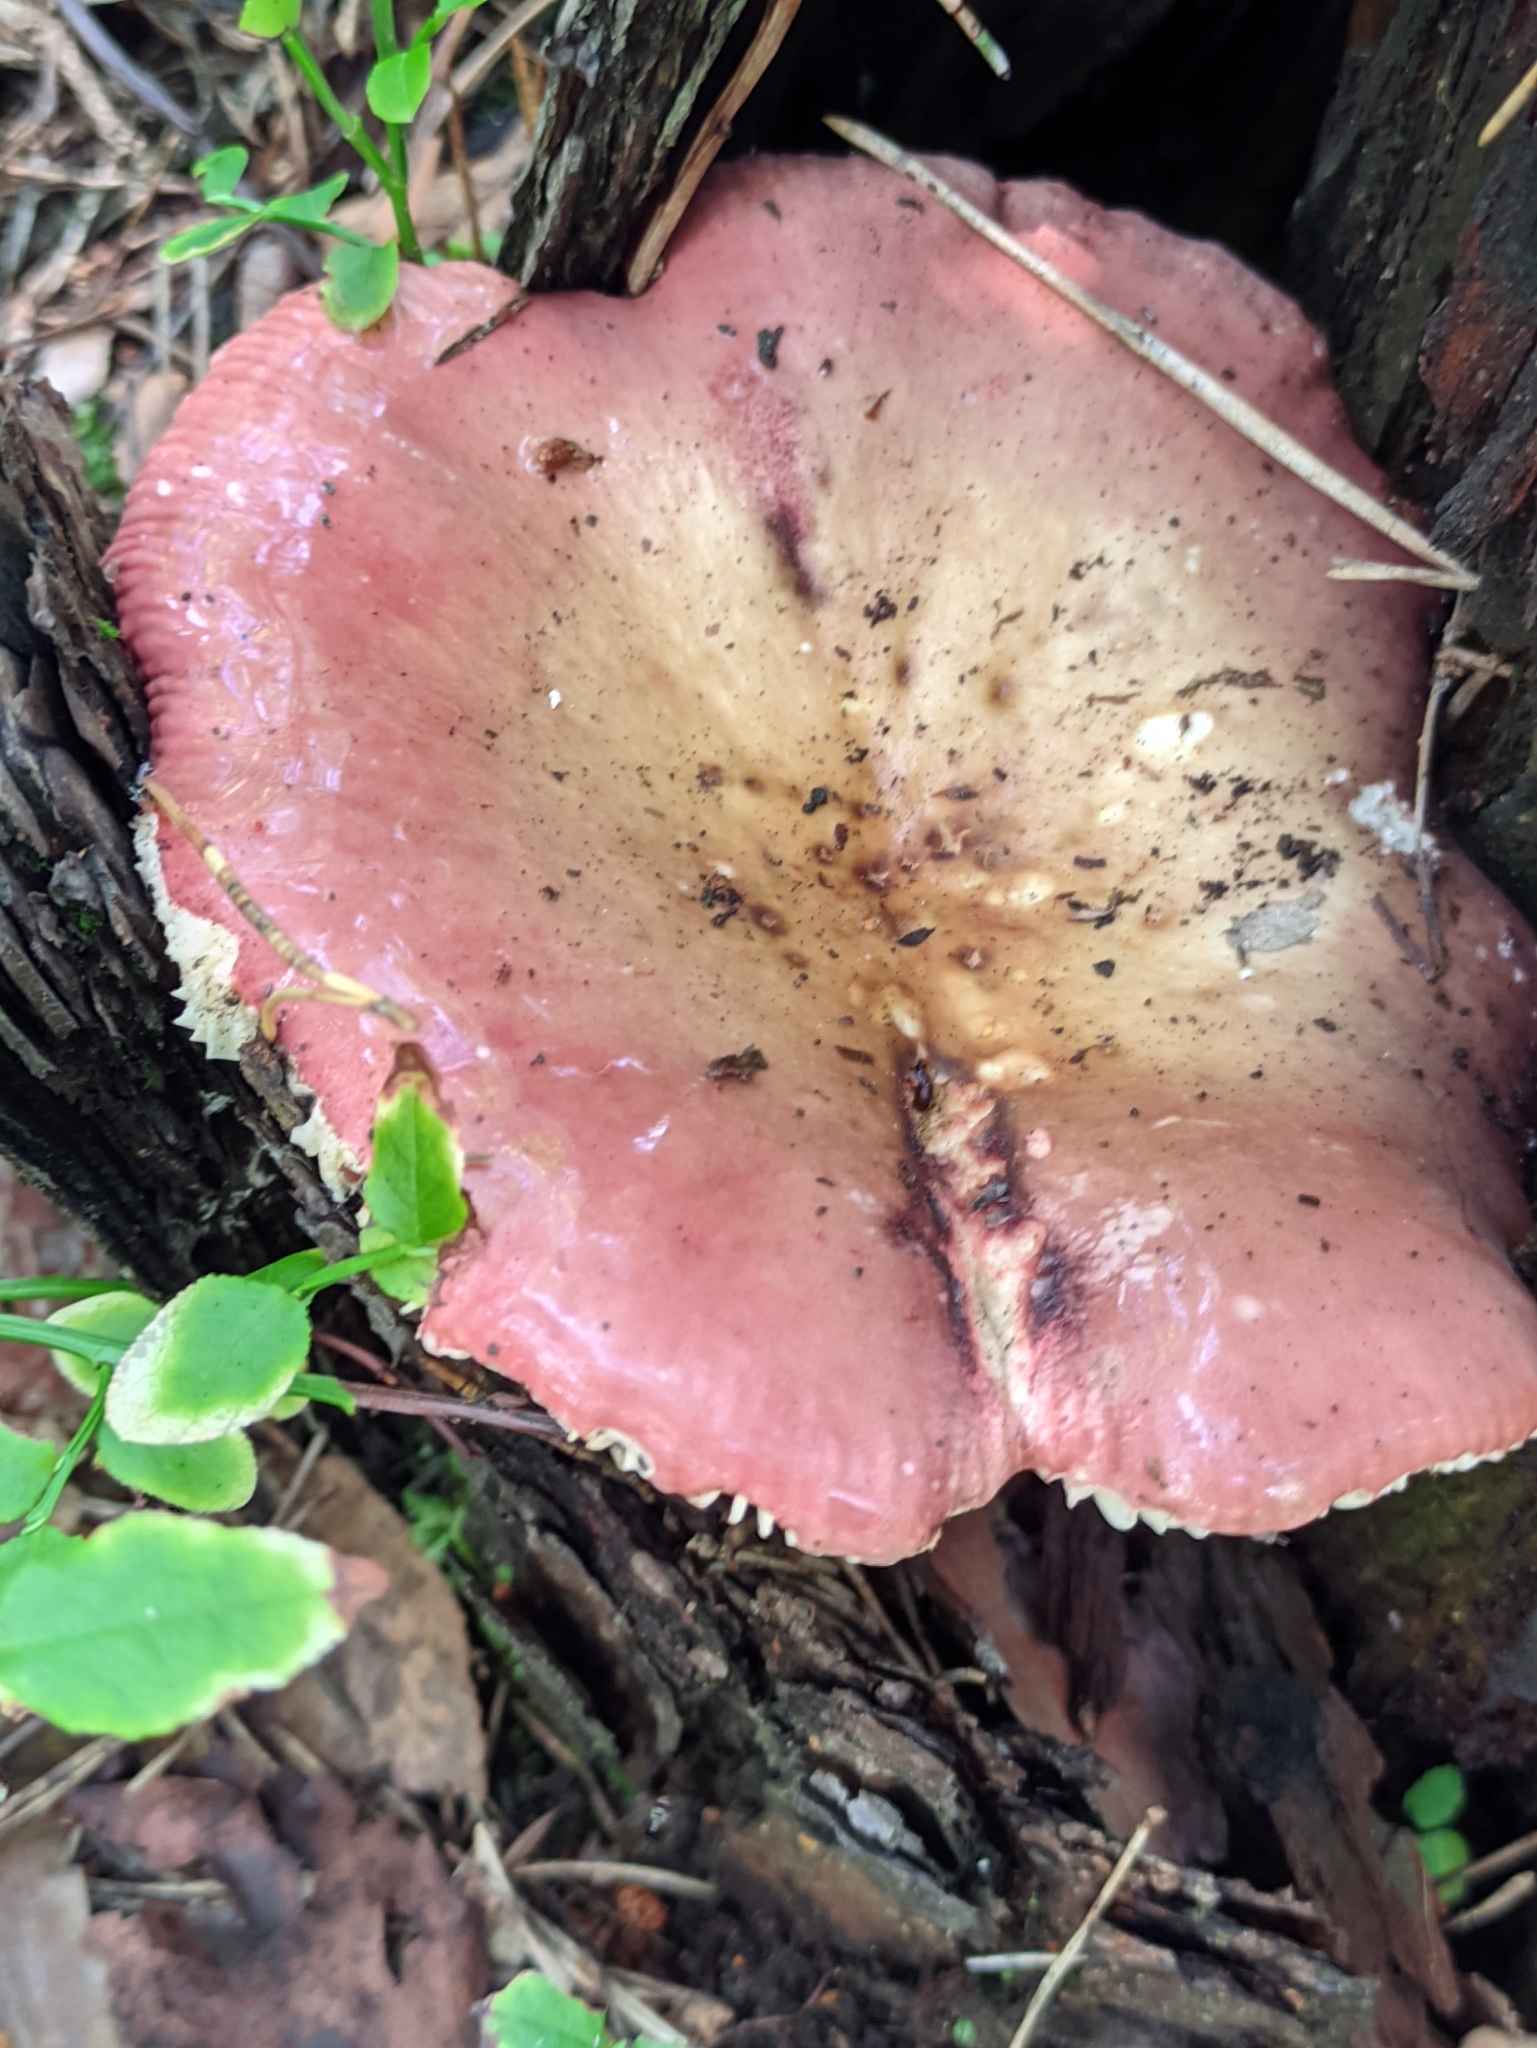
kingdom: Fungi
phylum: Basidiomycota
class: Agaricomycetes
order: Russulales
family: Russulaceae
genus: Russula
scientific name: Russula vesca
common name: Bare-toothed russula
